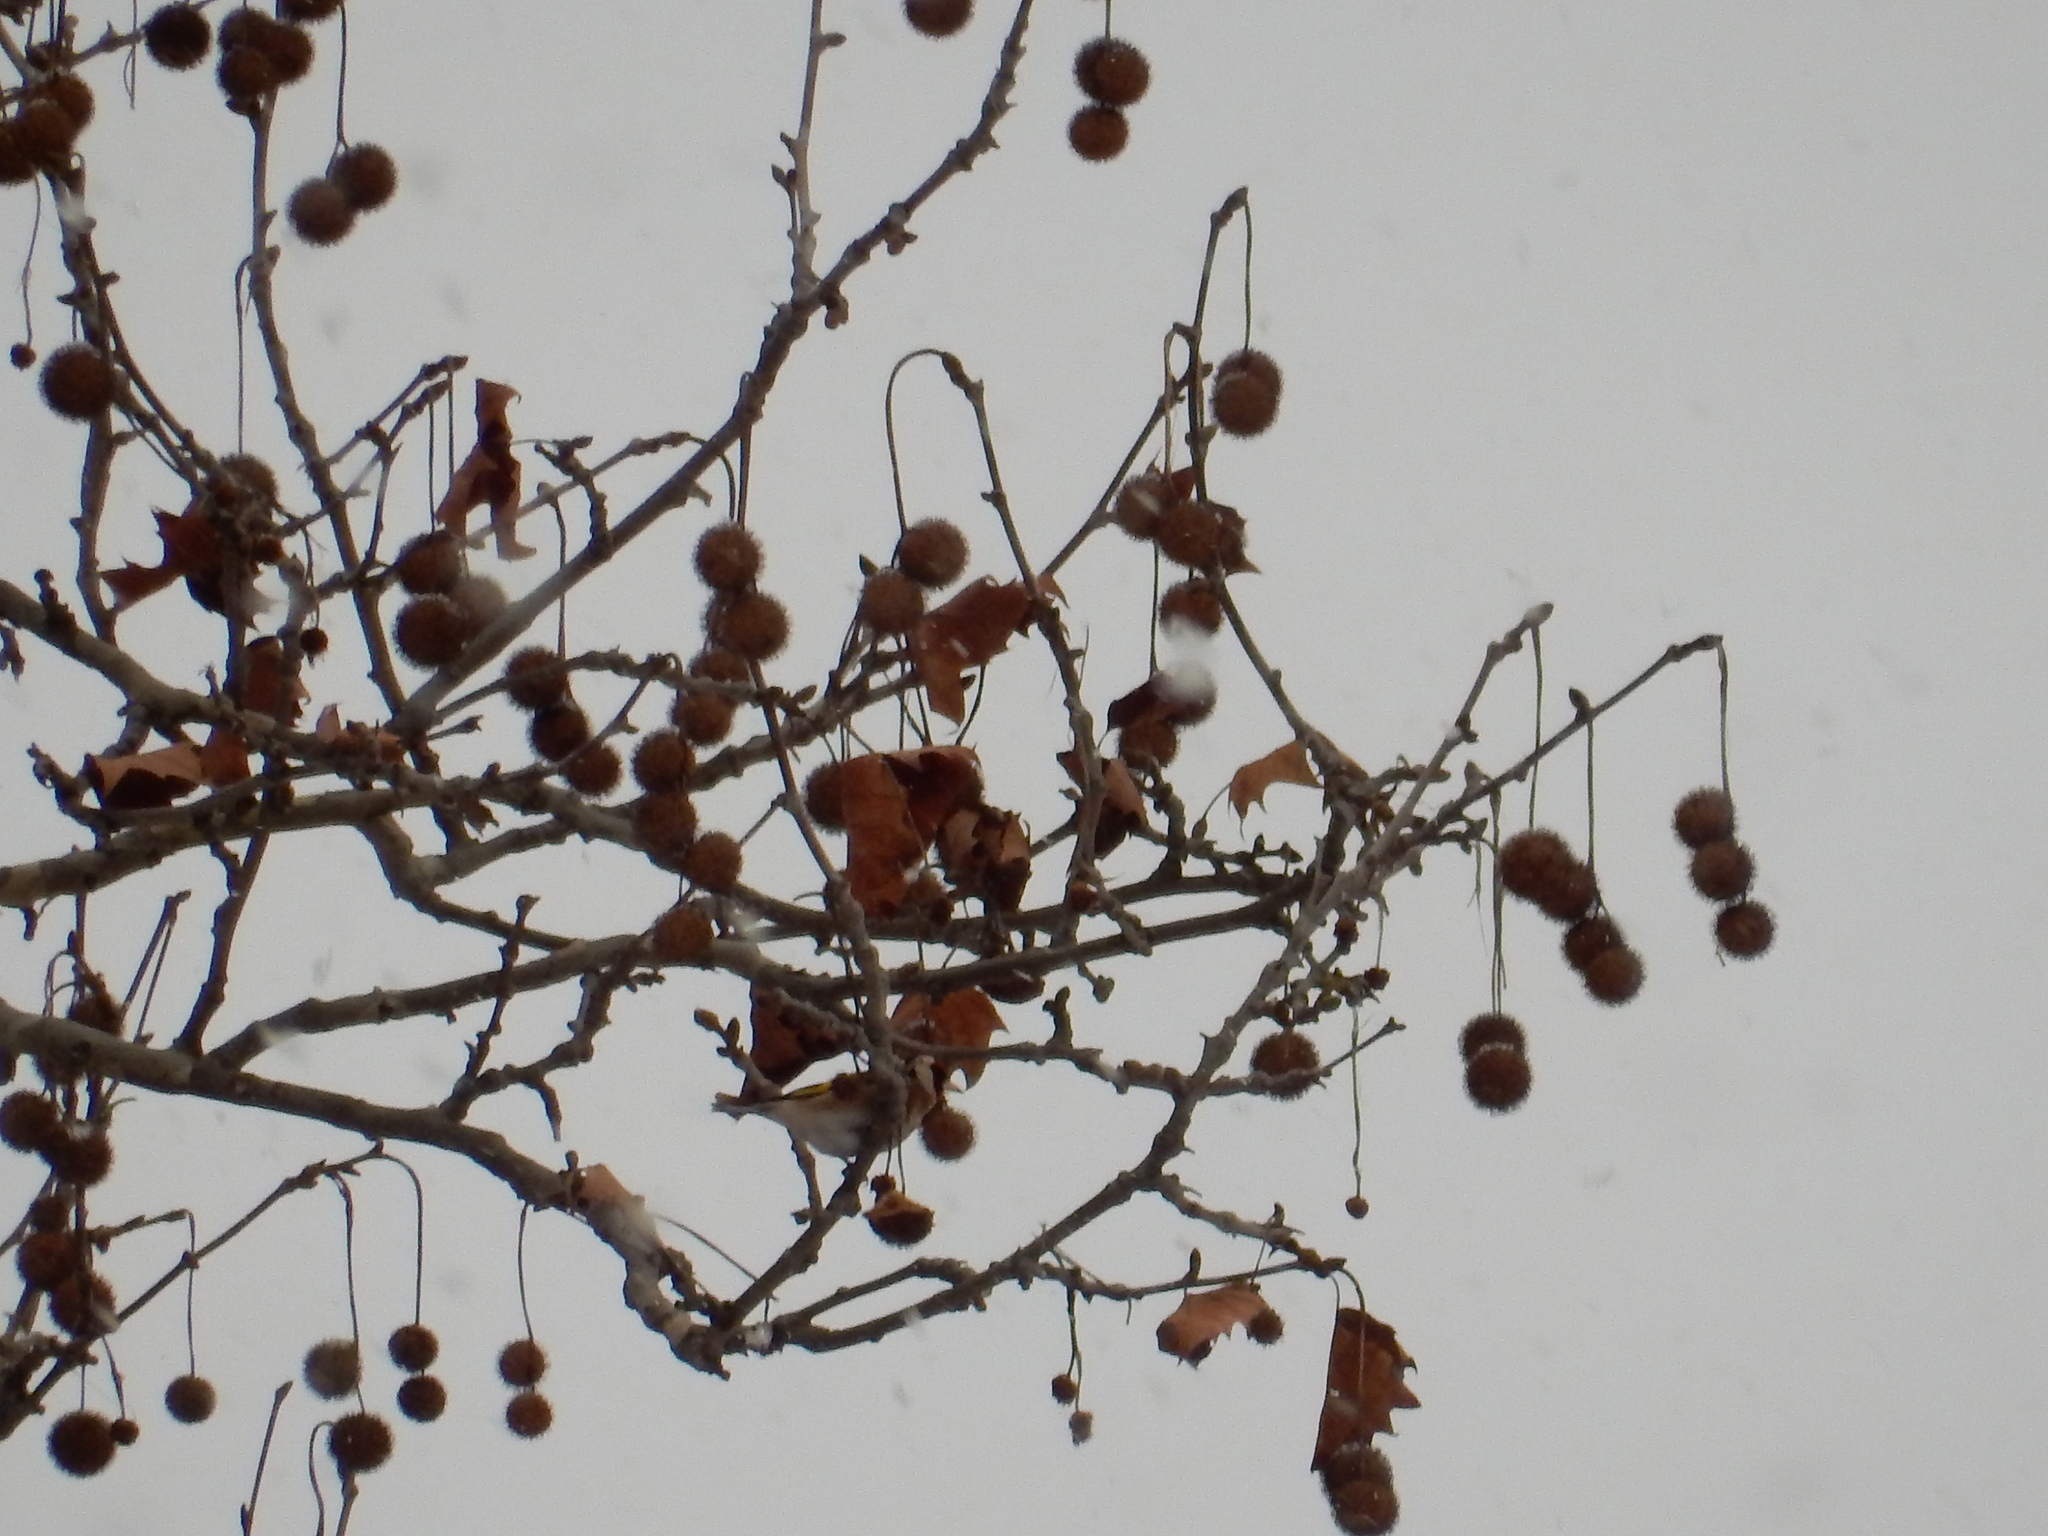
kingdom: Animalia
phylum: Chordata
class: Aves
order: Passeriformes
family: Fringillidae
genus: Carduelis
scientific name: Carduelis carduelis
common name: European goldfinch
